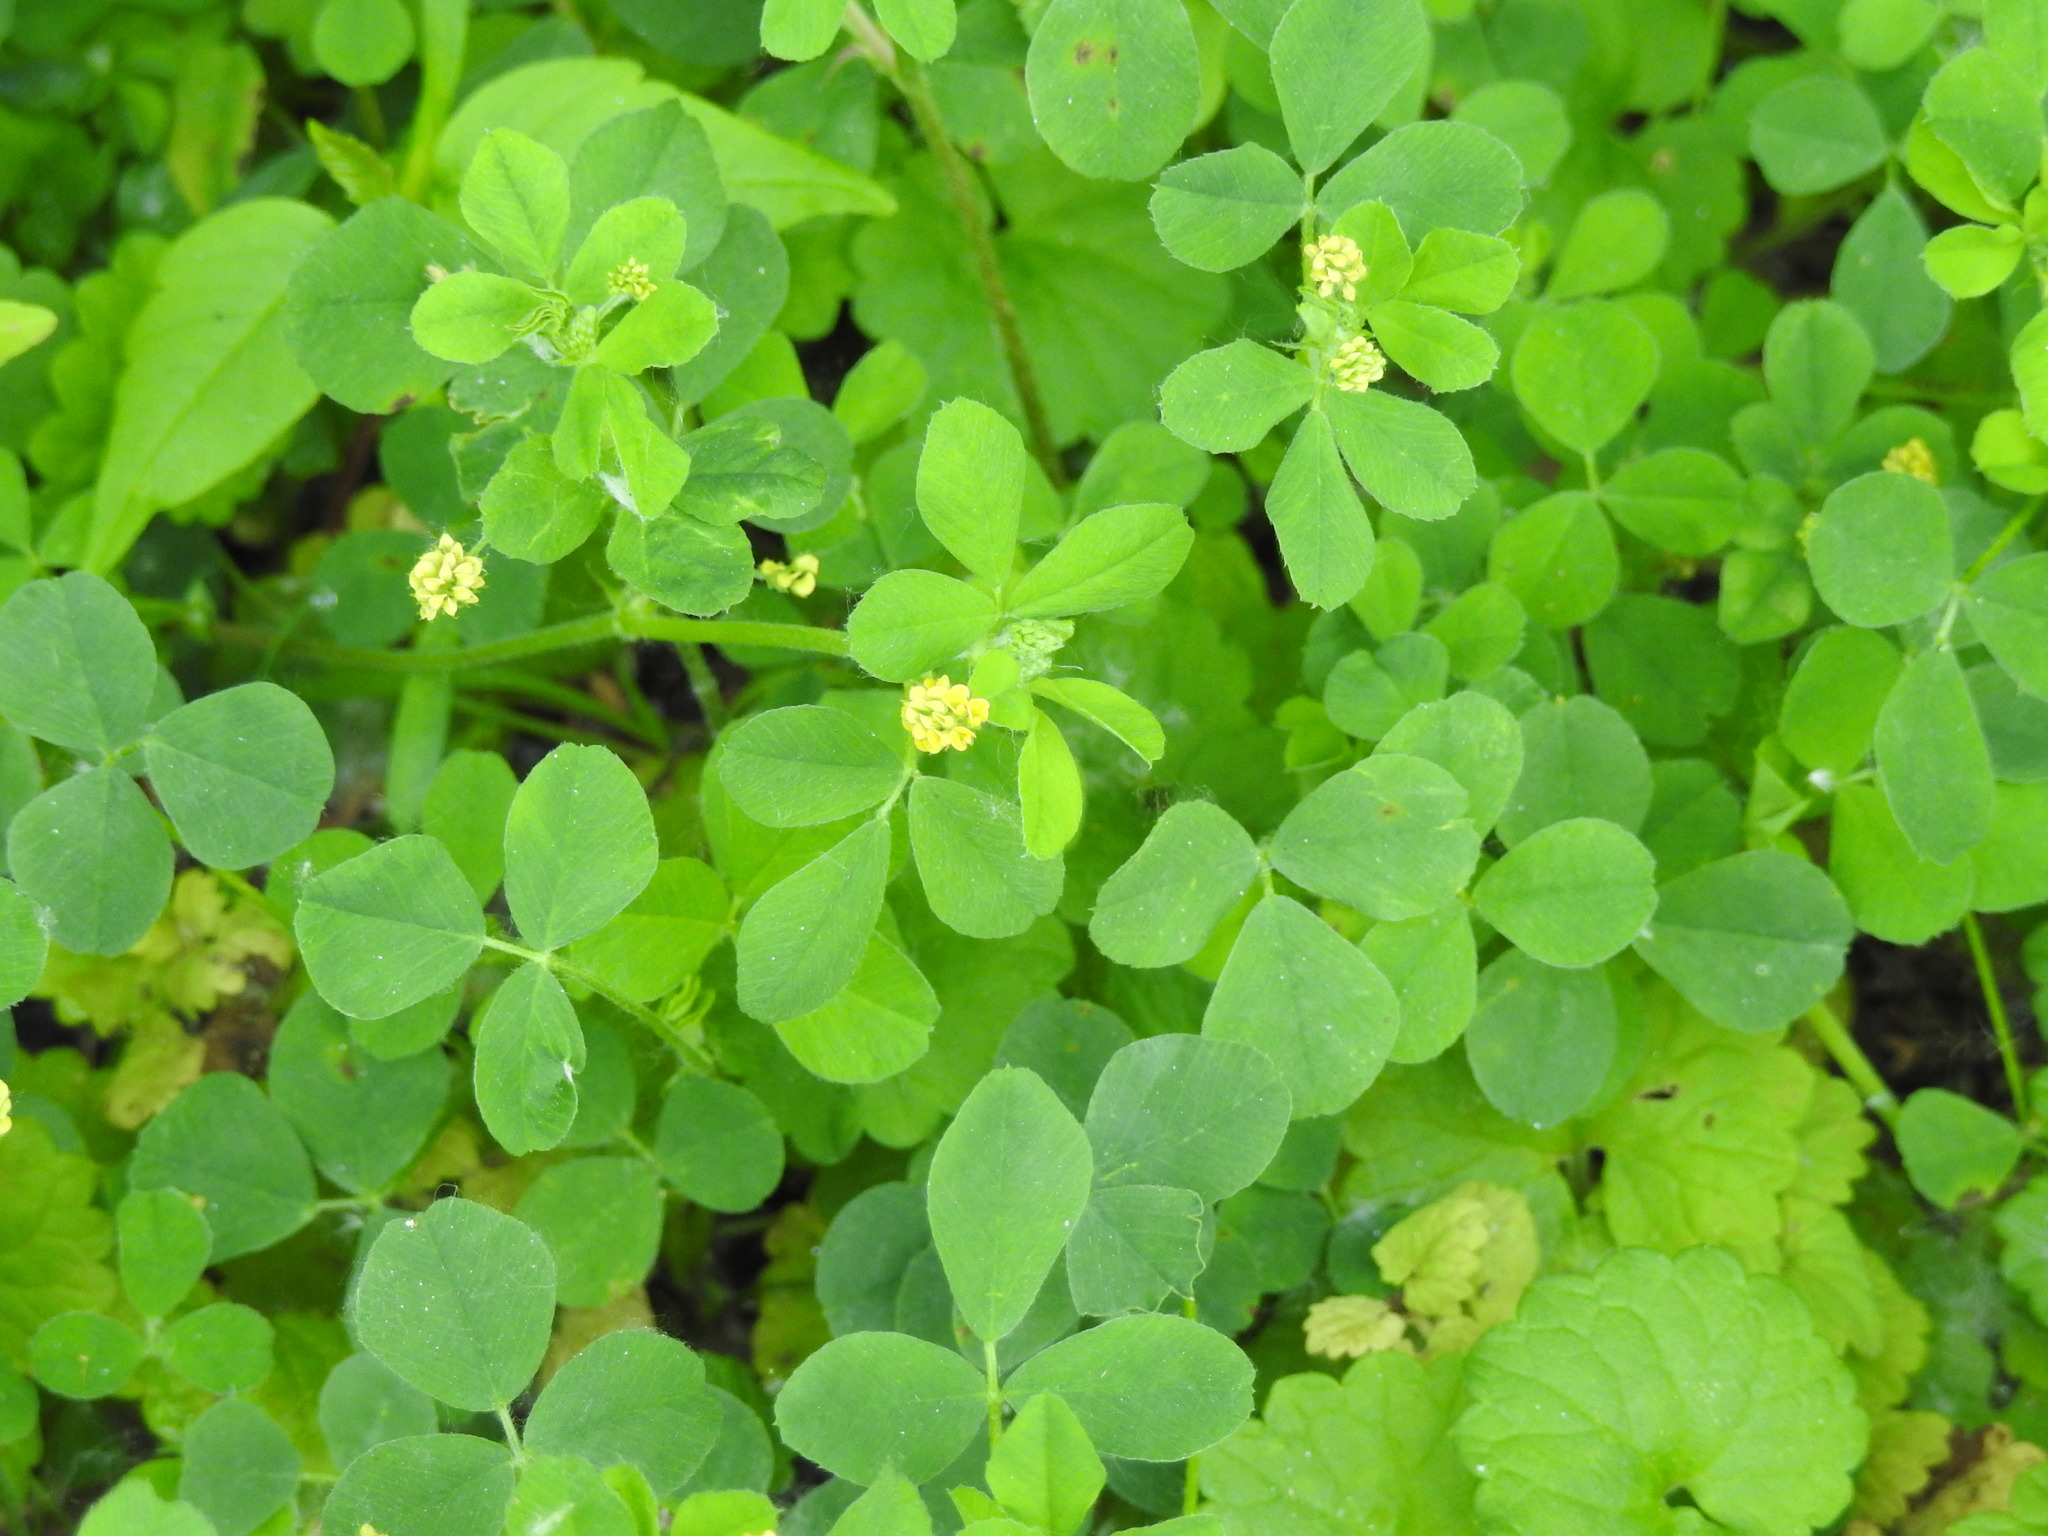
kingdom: Plantae
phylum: Tracheophyta
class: Magnoliopsida
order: Fabales
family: Fabaceae
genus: Medicago
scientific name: Medicago lupulina
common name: Black medick
